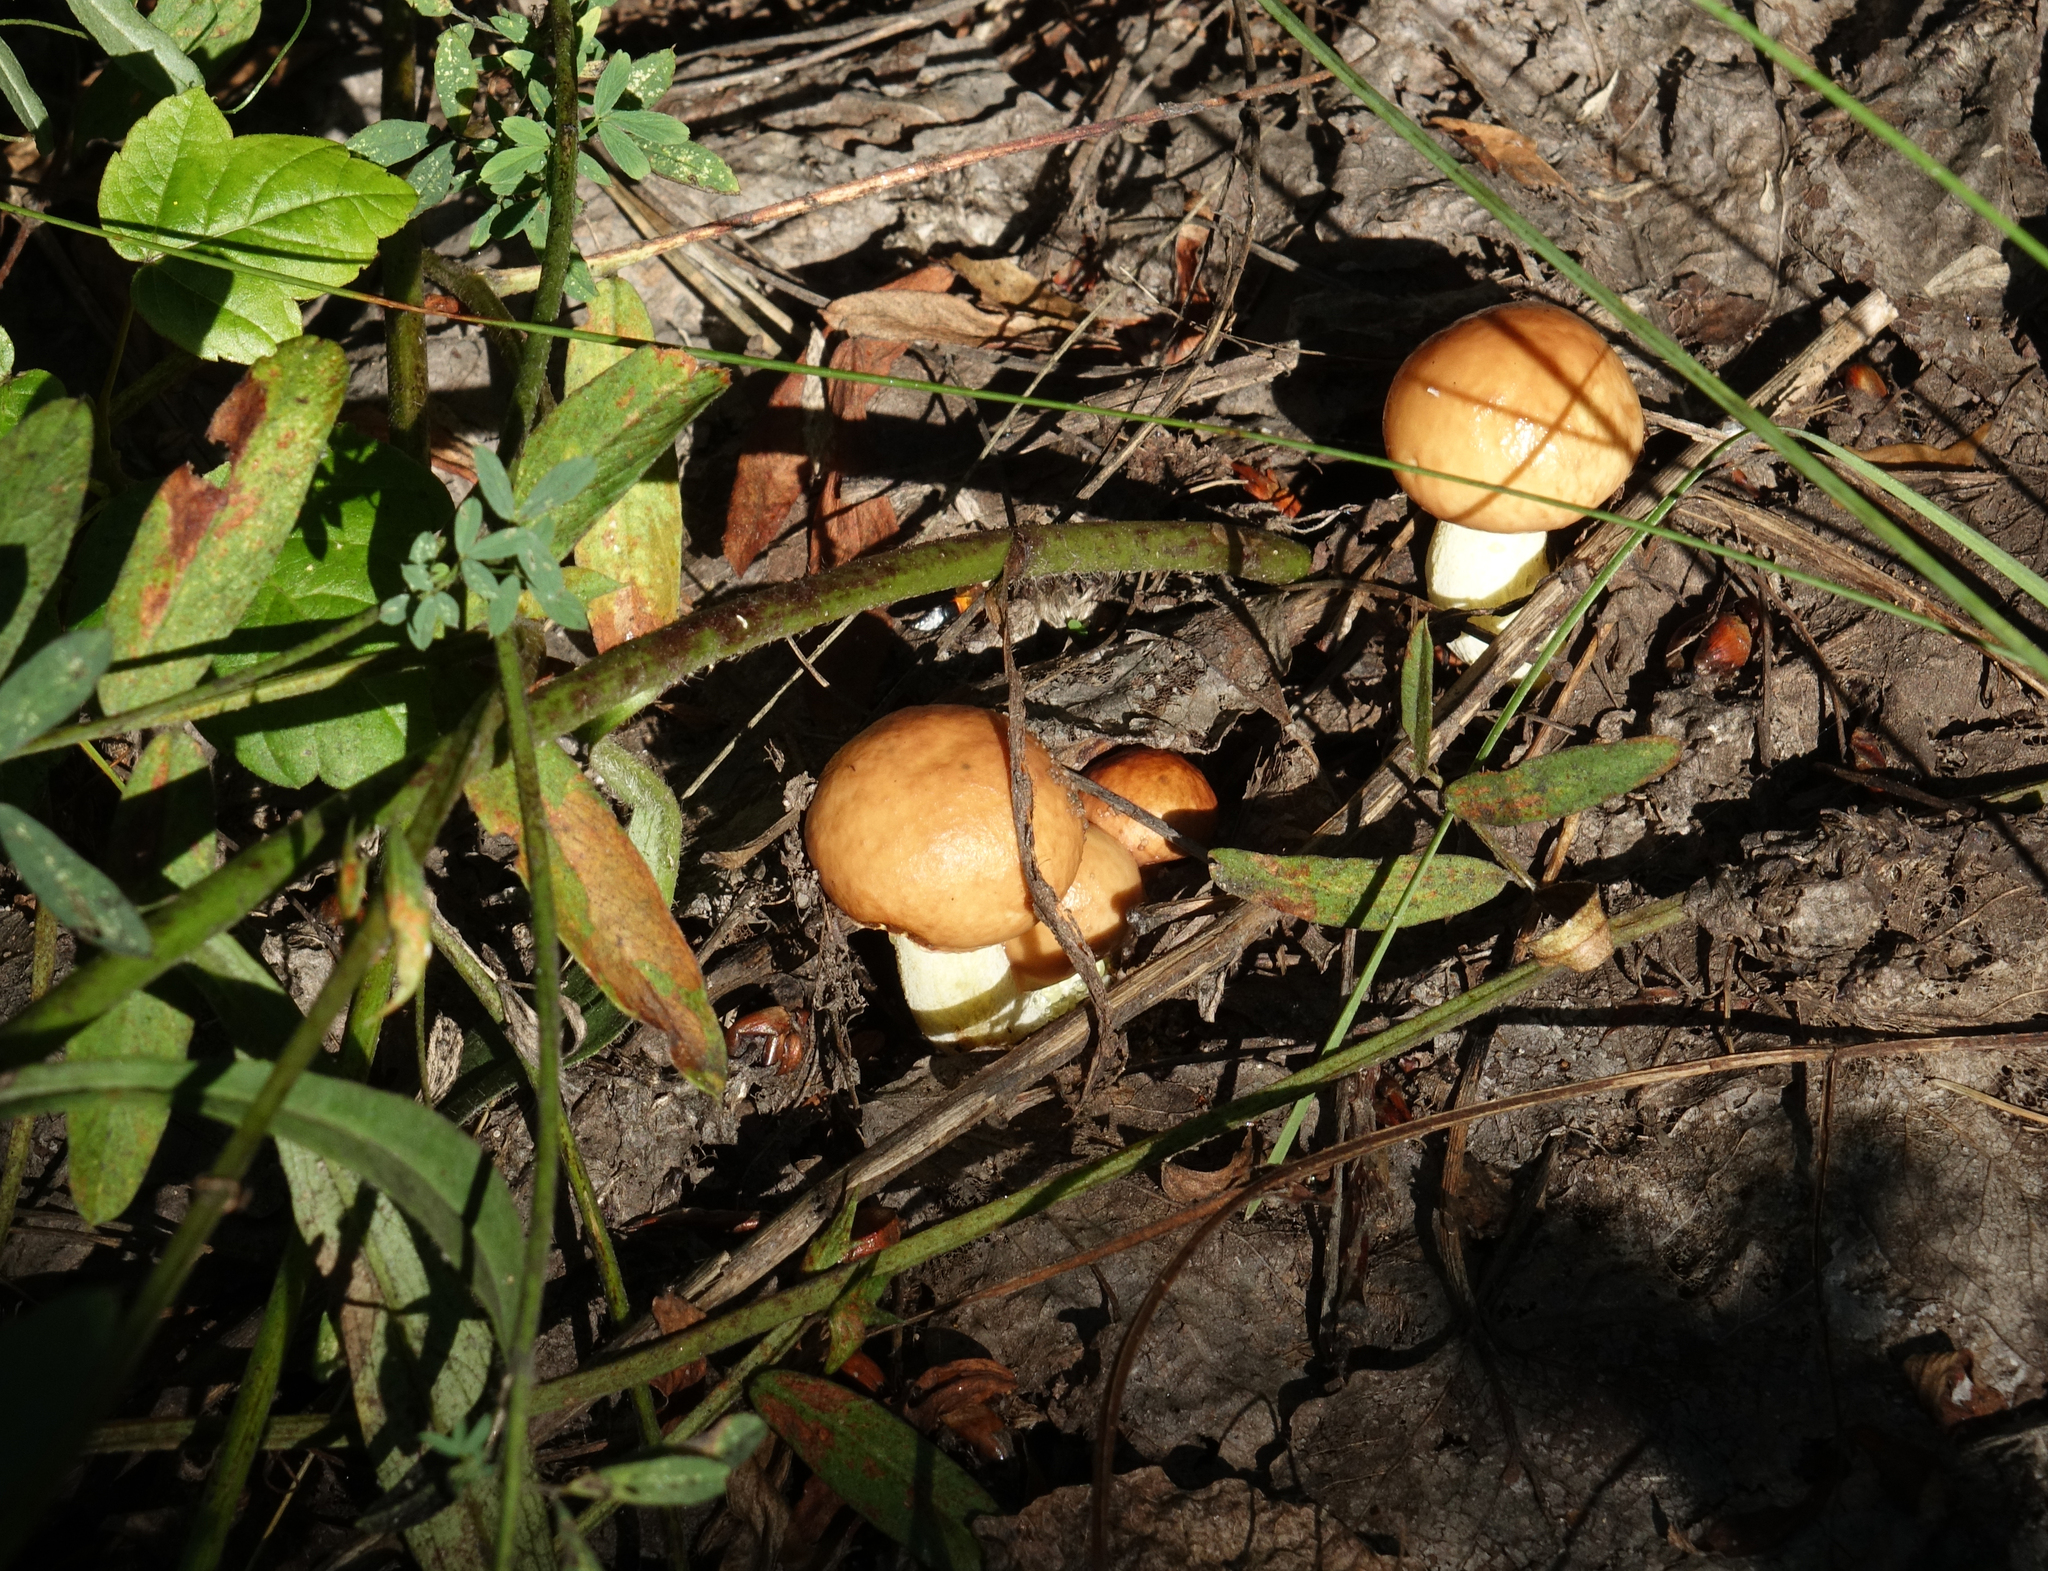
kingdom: Fungi
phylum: Basidiomycota
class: Agaricomycetes
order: Boletales
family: Suillaceae
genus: Suillus
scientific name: Suillus luteus
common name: Slippery jack
